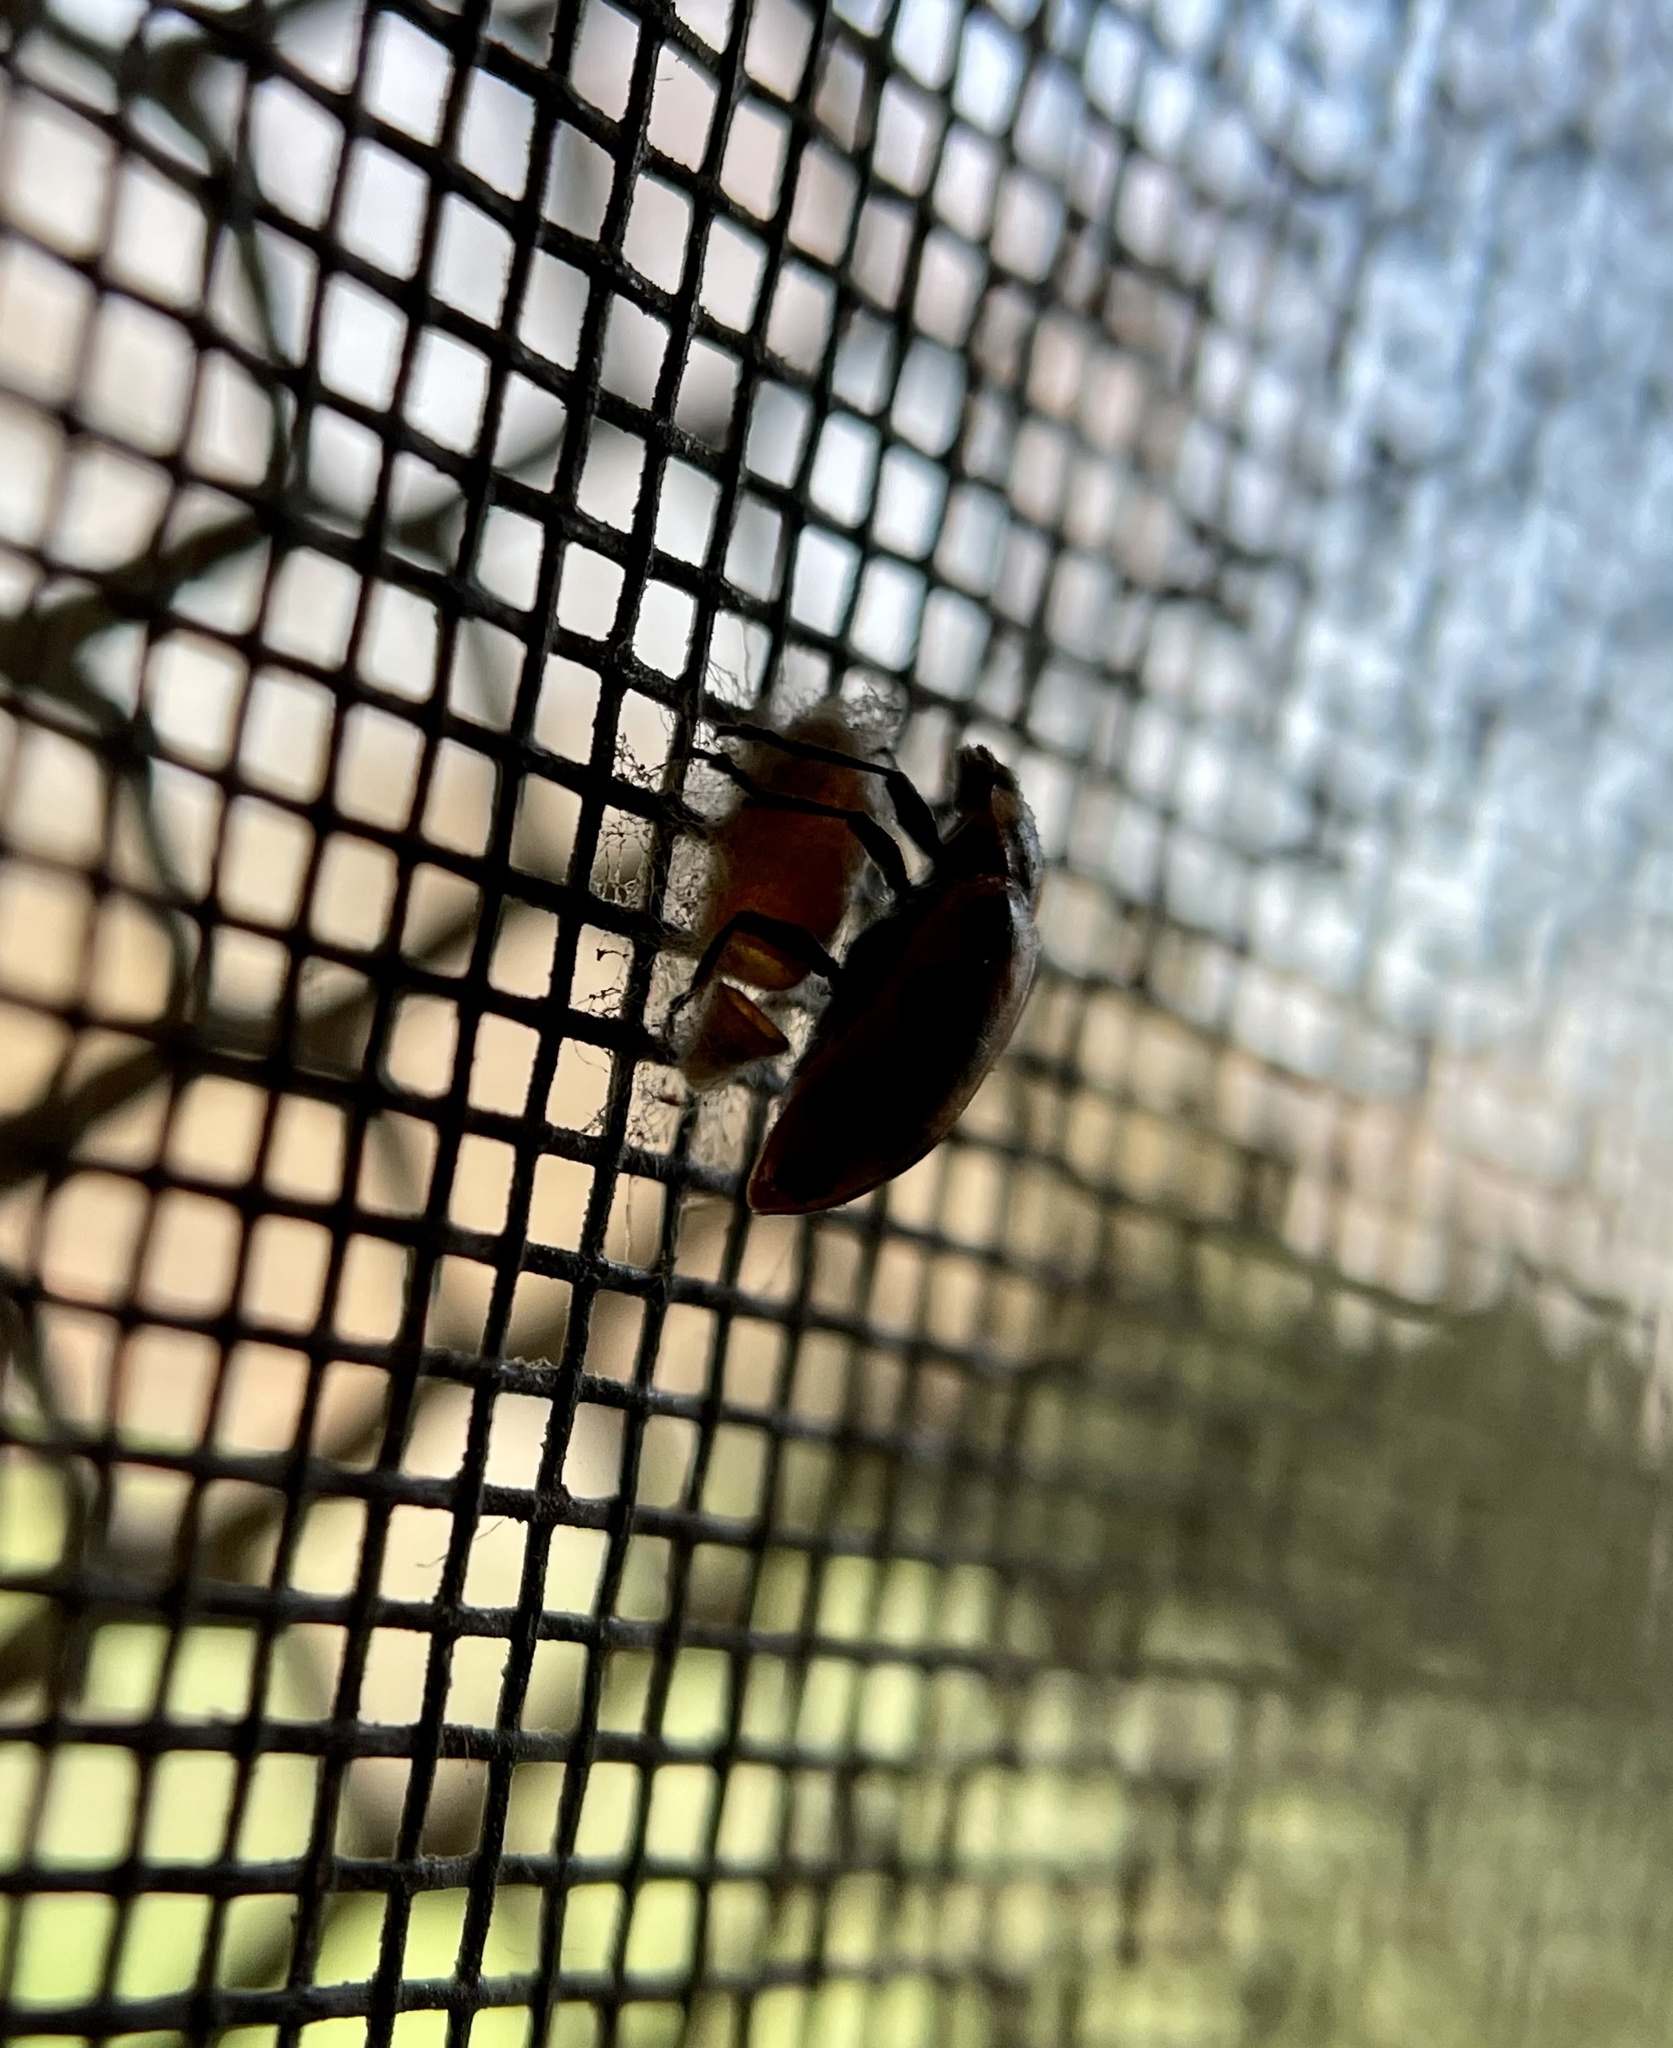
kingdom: Viruses
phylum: Pisuviricota
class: Pisoniviricetes
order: Picornavirales
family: Iflaviridae
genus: Iflavirus
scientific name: Iflavirus dinococcinellae
